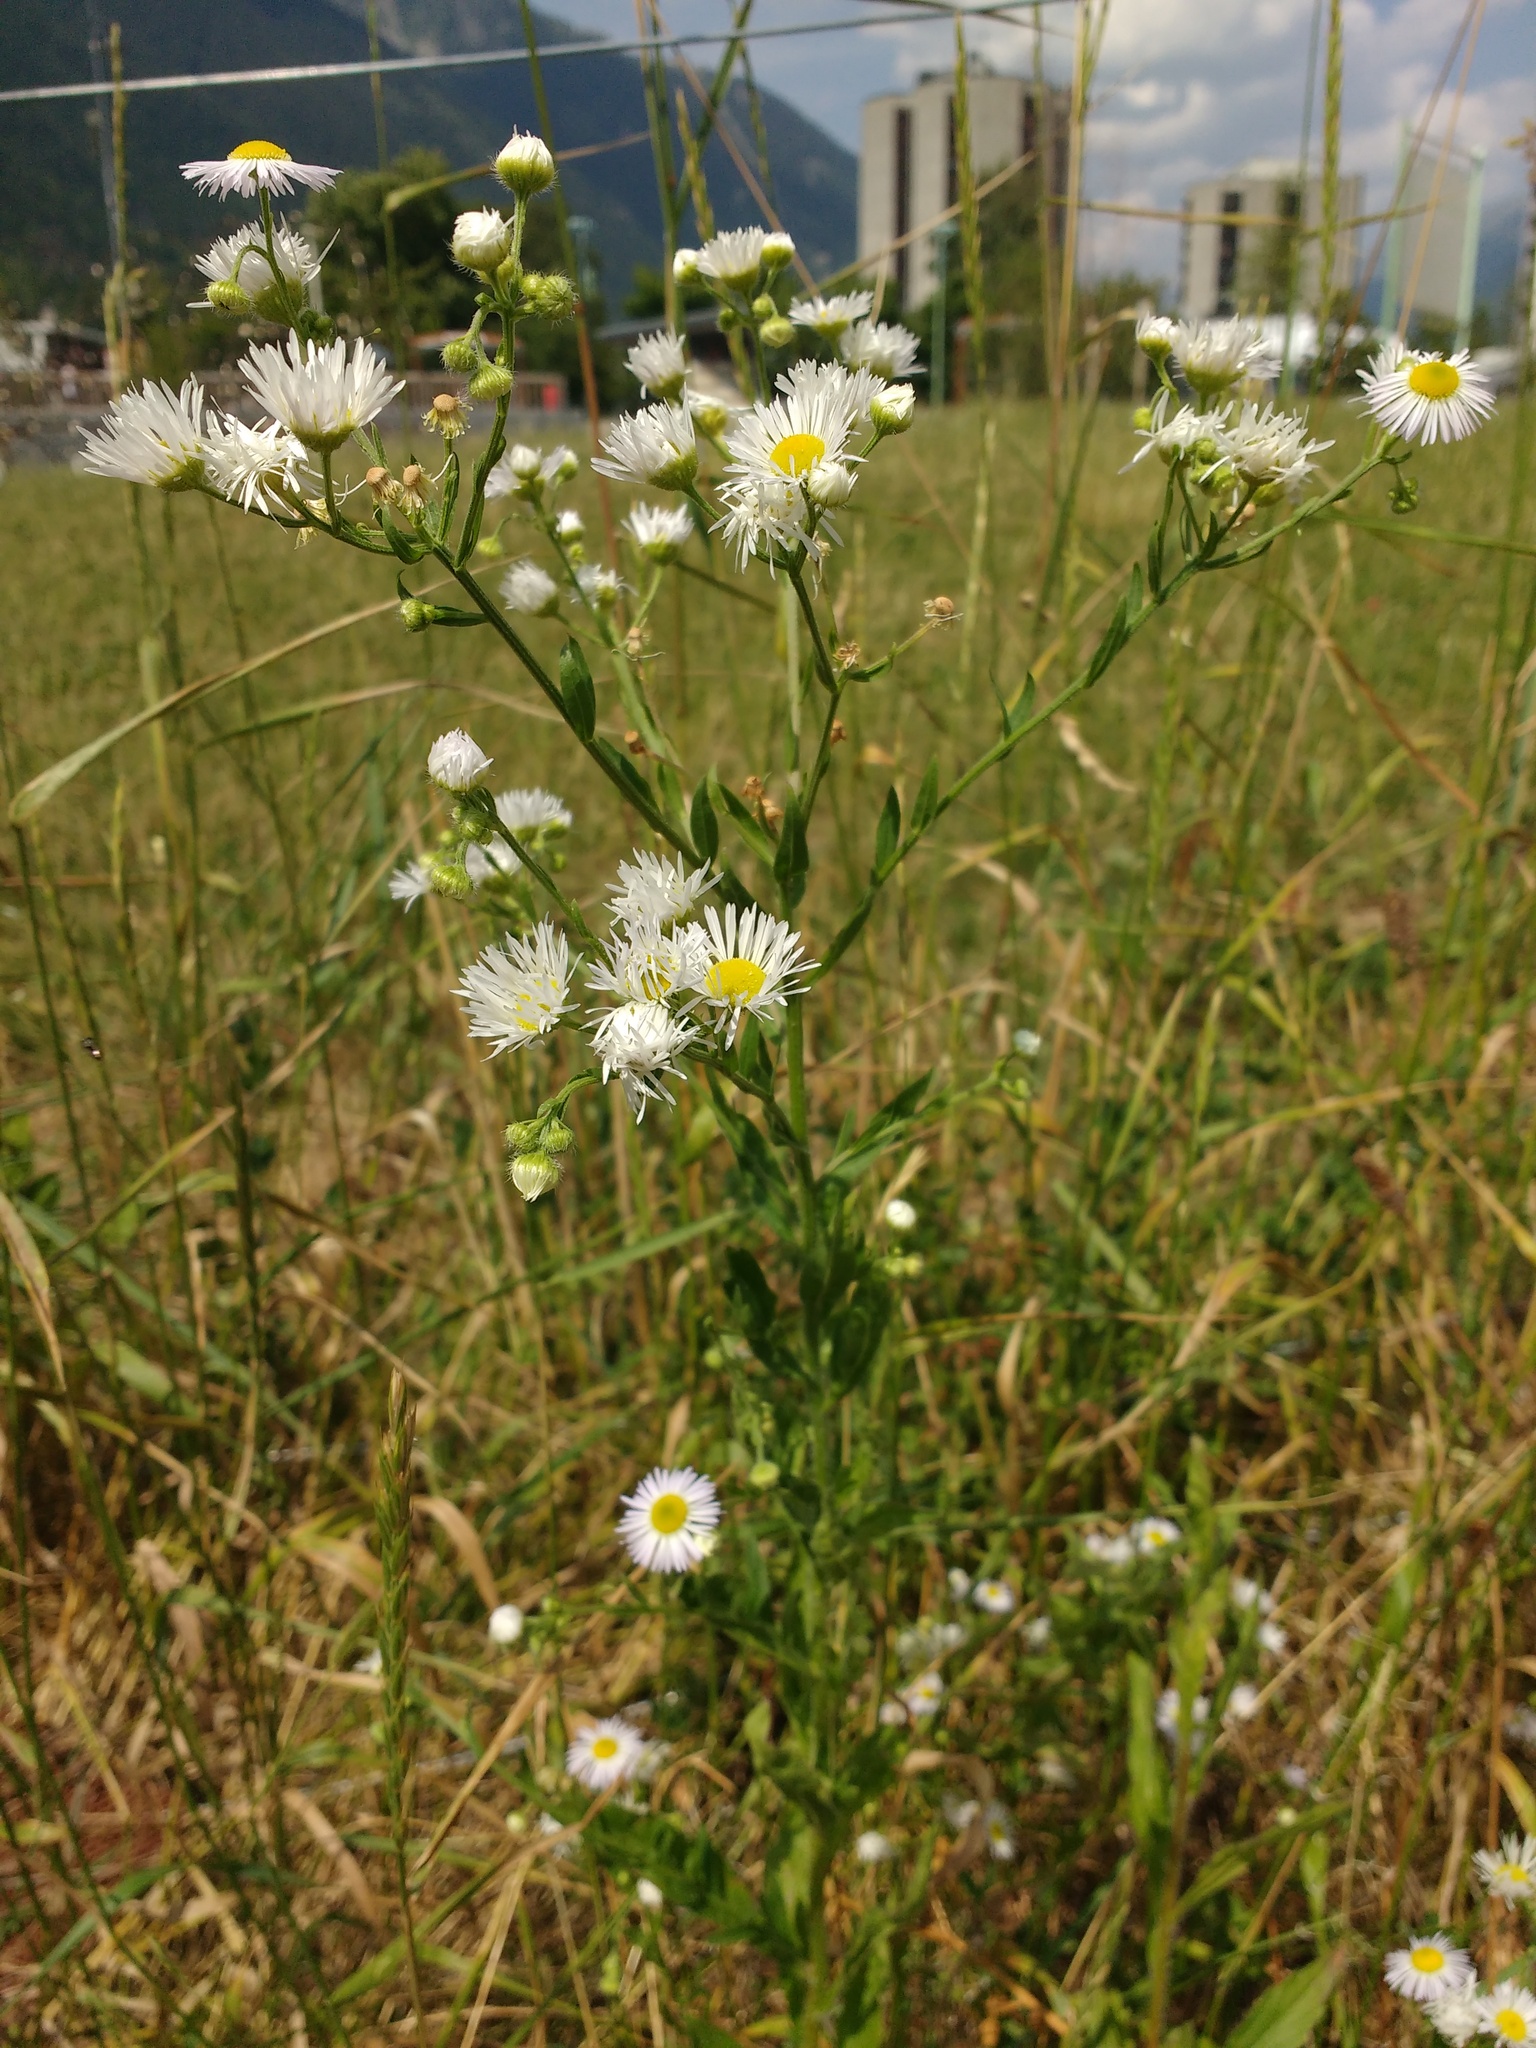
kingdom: Plantae
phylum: Tracheophyta
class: Magnoliopsida
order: Asterales
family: Asteraceae
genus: Tripleurospermum
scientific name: Tripleurospermum inodorum
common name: Scentless mayweed
